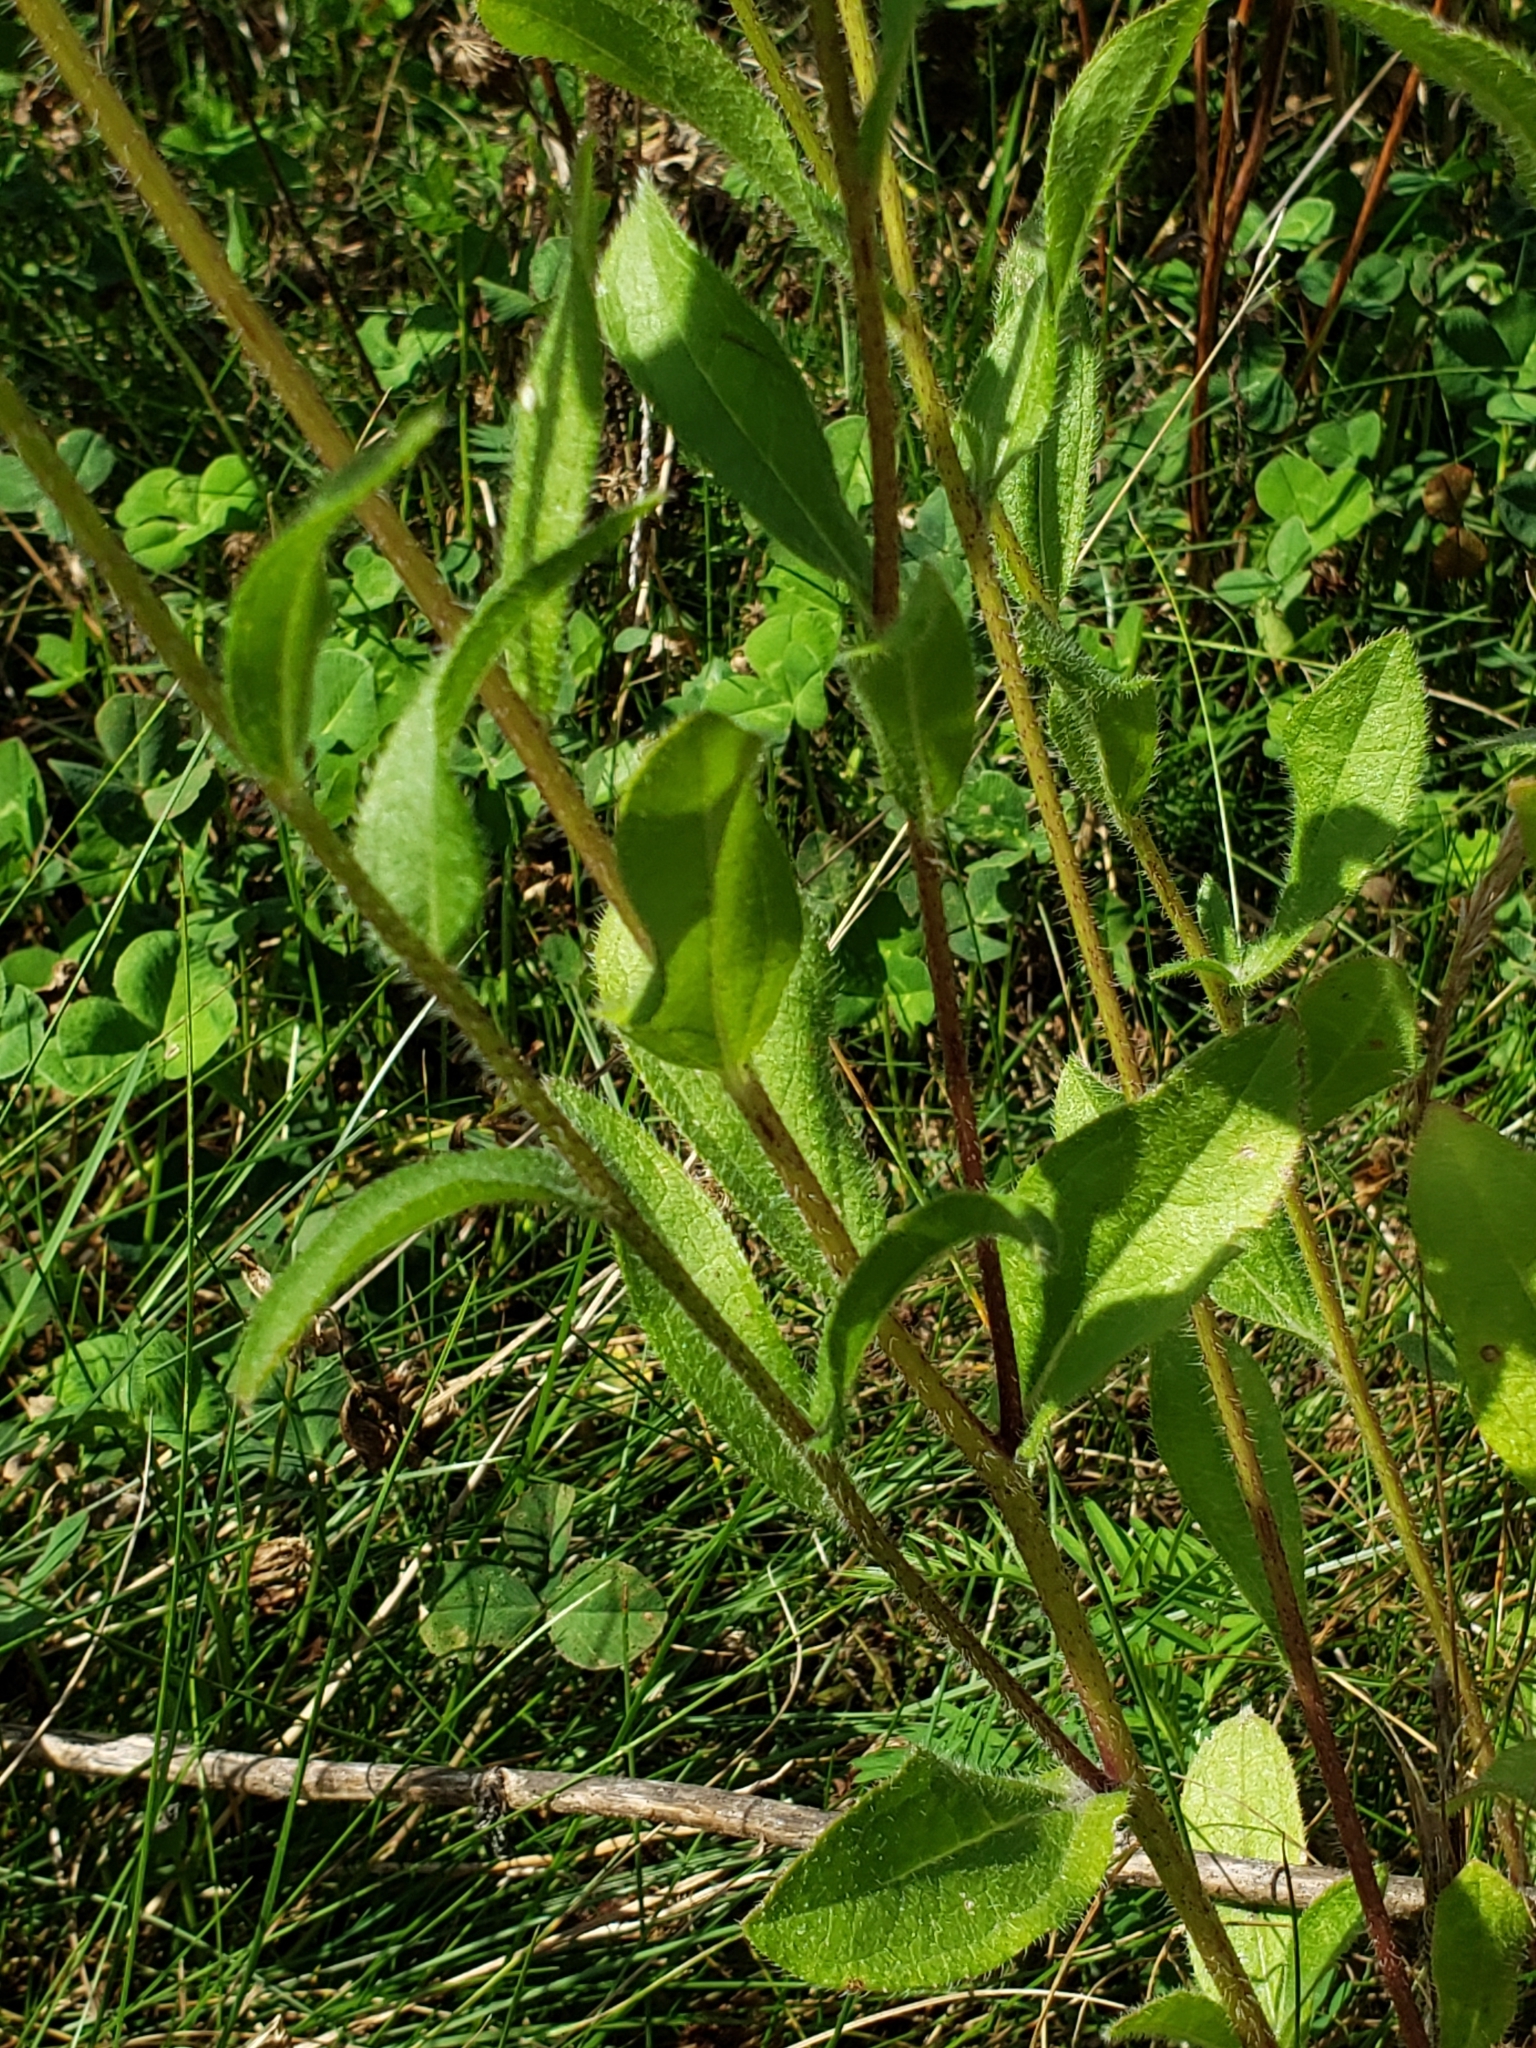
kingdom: Plantae
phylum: Tracheophyta
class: Magnoliopsida
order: Asterales
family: Asteraceae
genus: Rudbeckia
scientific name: Rudbeckia hirta
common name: Black-eyed-susan
